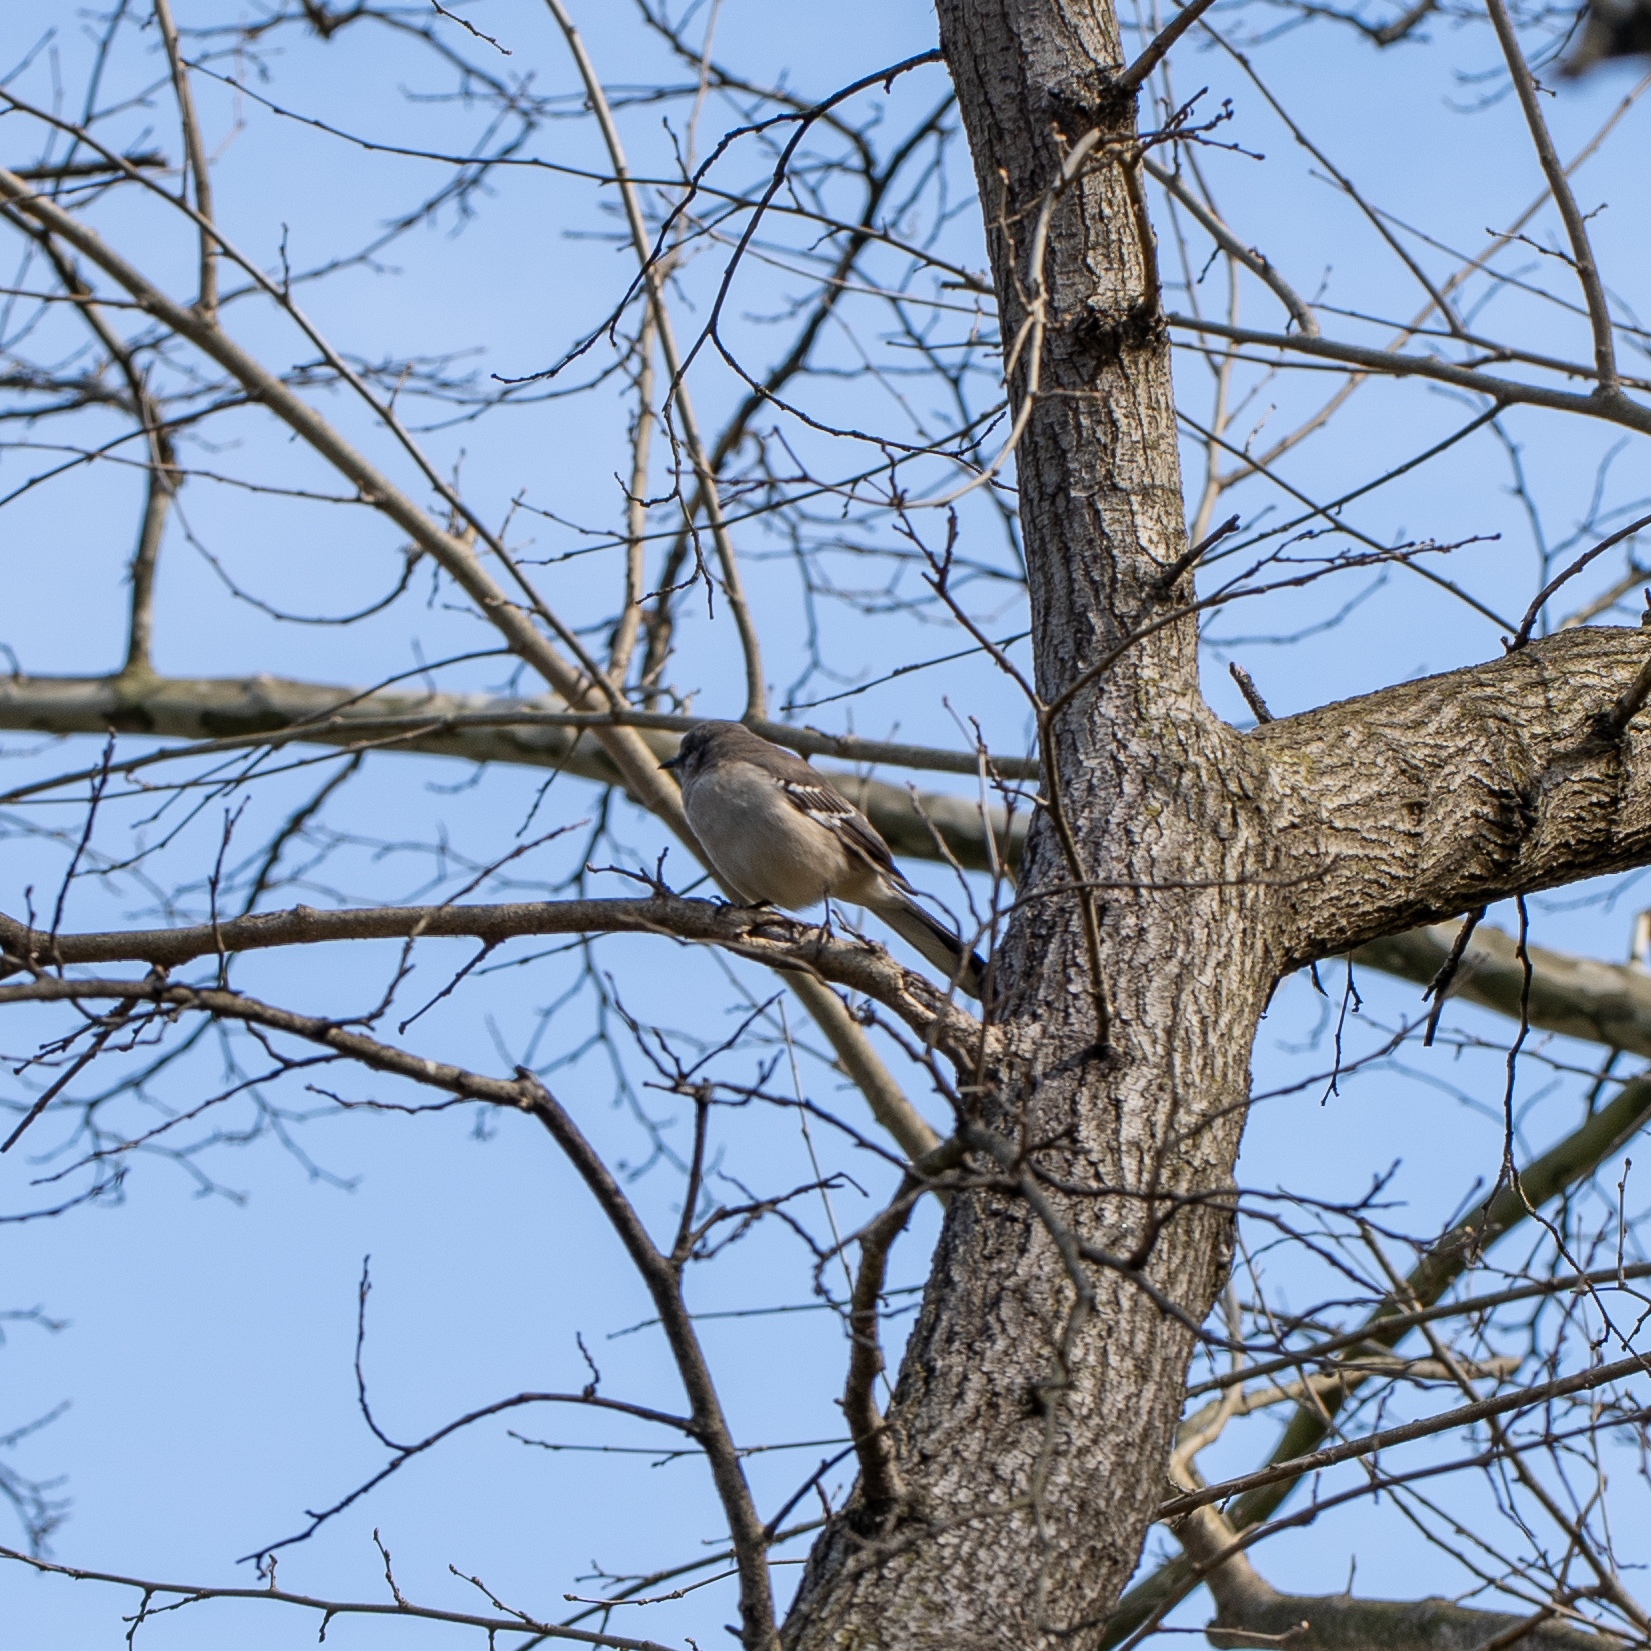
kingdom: Animalia
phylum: Chordata
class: Aves
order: Passeriformes
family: Mimidae
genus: Mimus
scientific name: Mimus polyglottos
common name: Northern mockingbird
